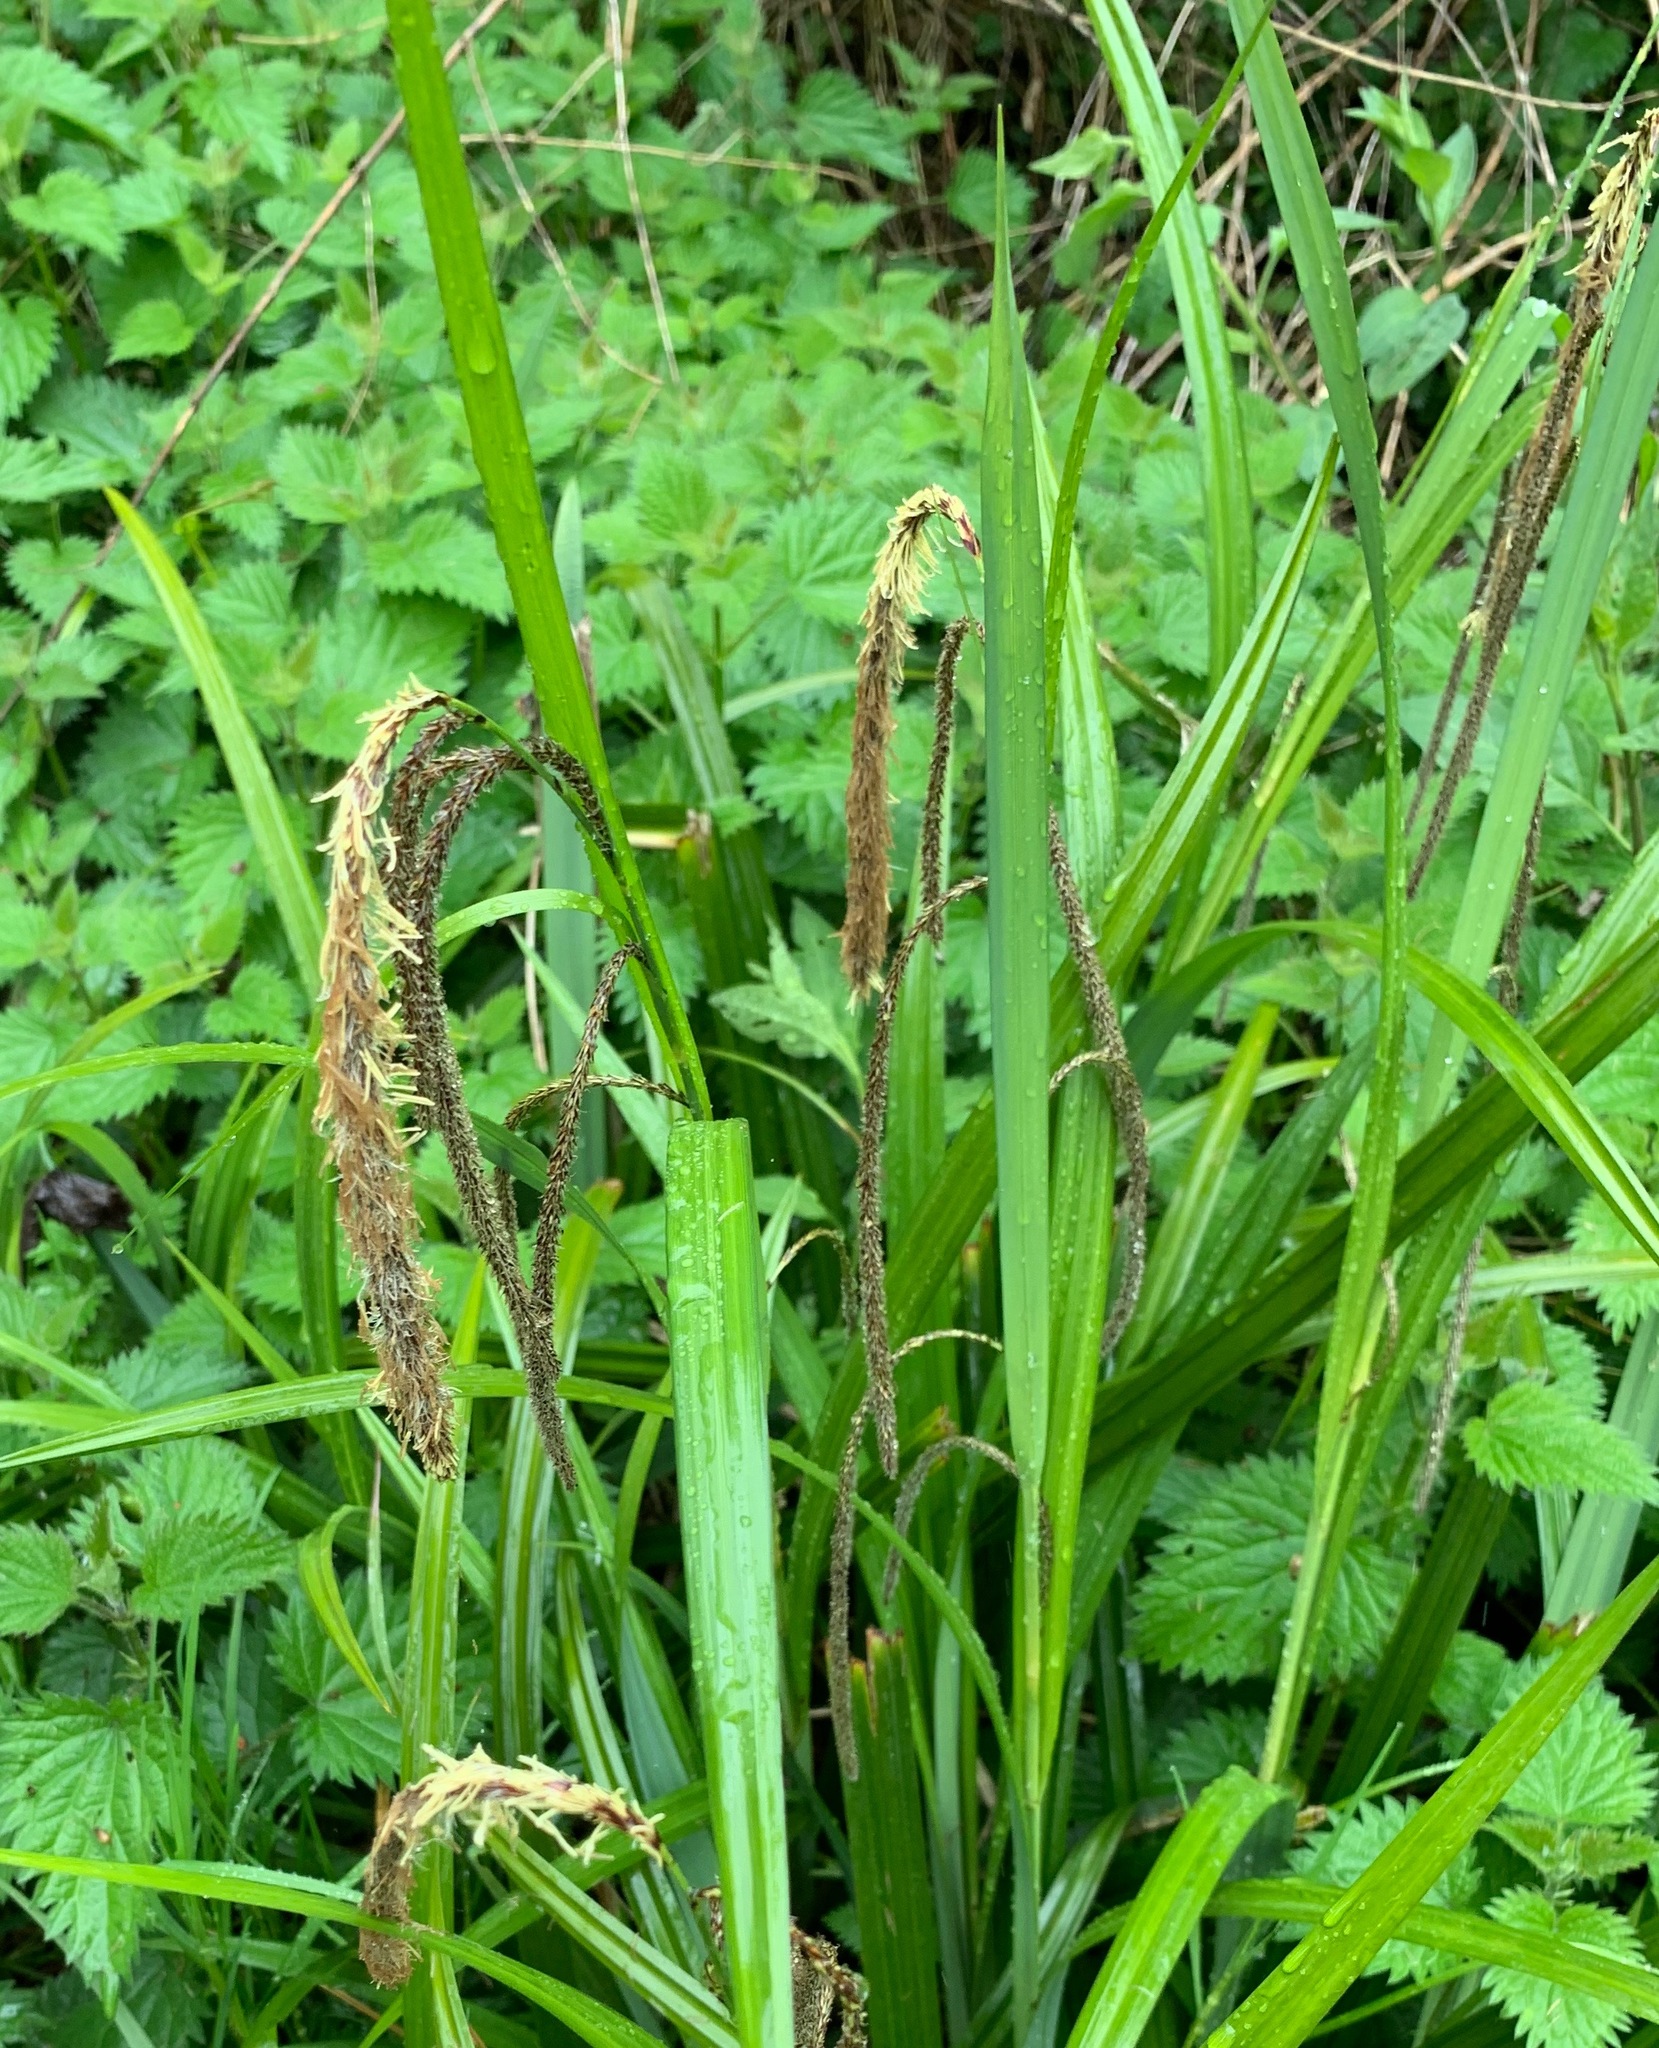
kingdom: Plantae
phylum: Tracheophyta
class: Liliopsida
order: Poales
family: Cyperaceae
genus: Carex
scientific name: Carex pendula
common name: Pendulous sedge
